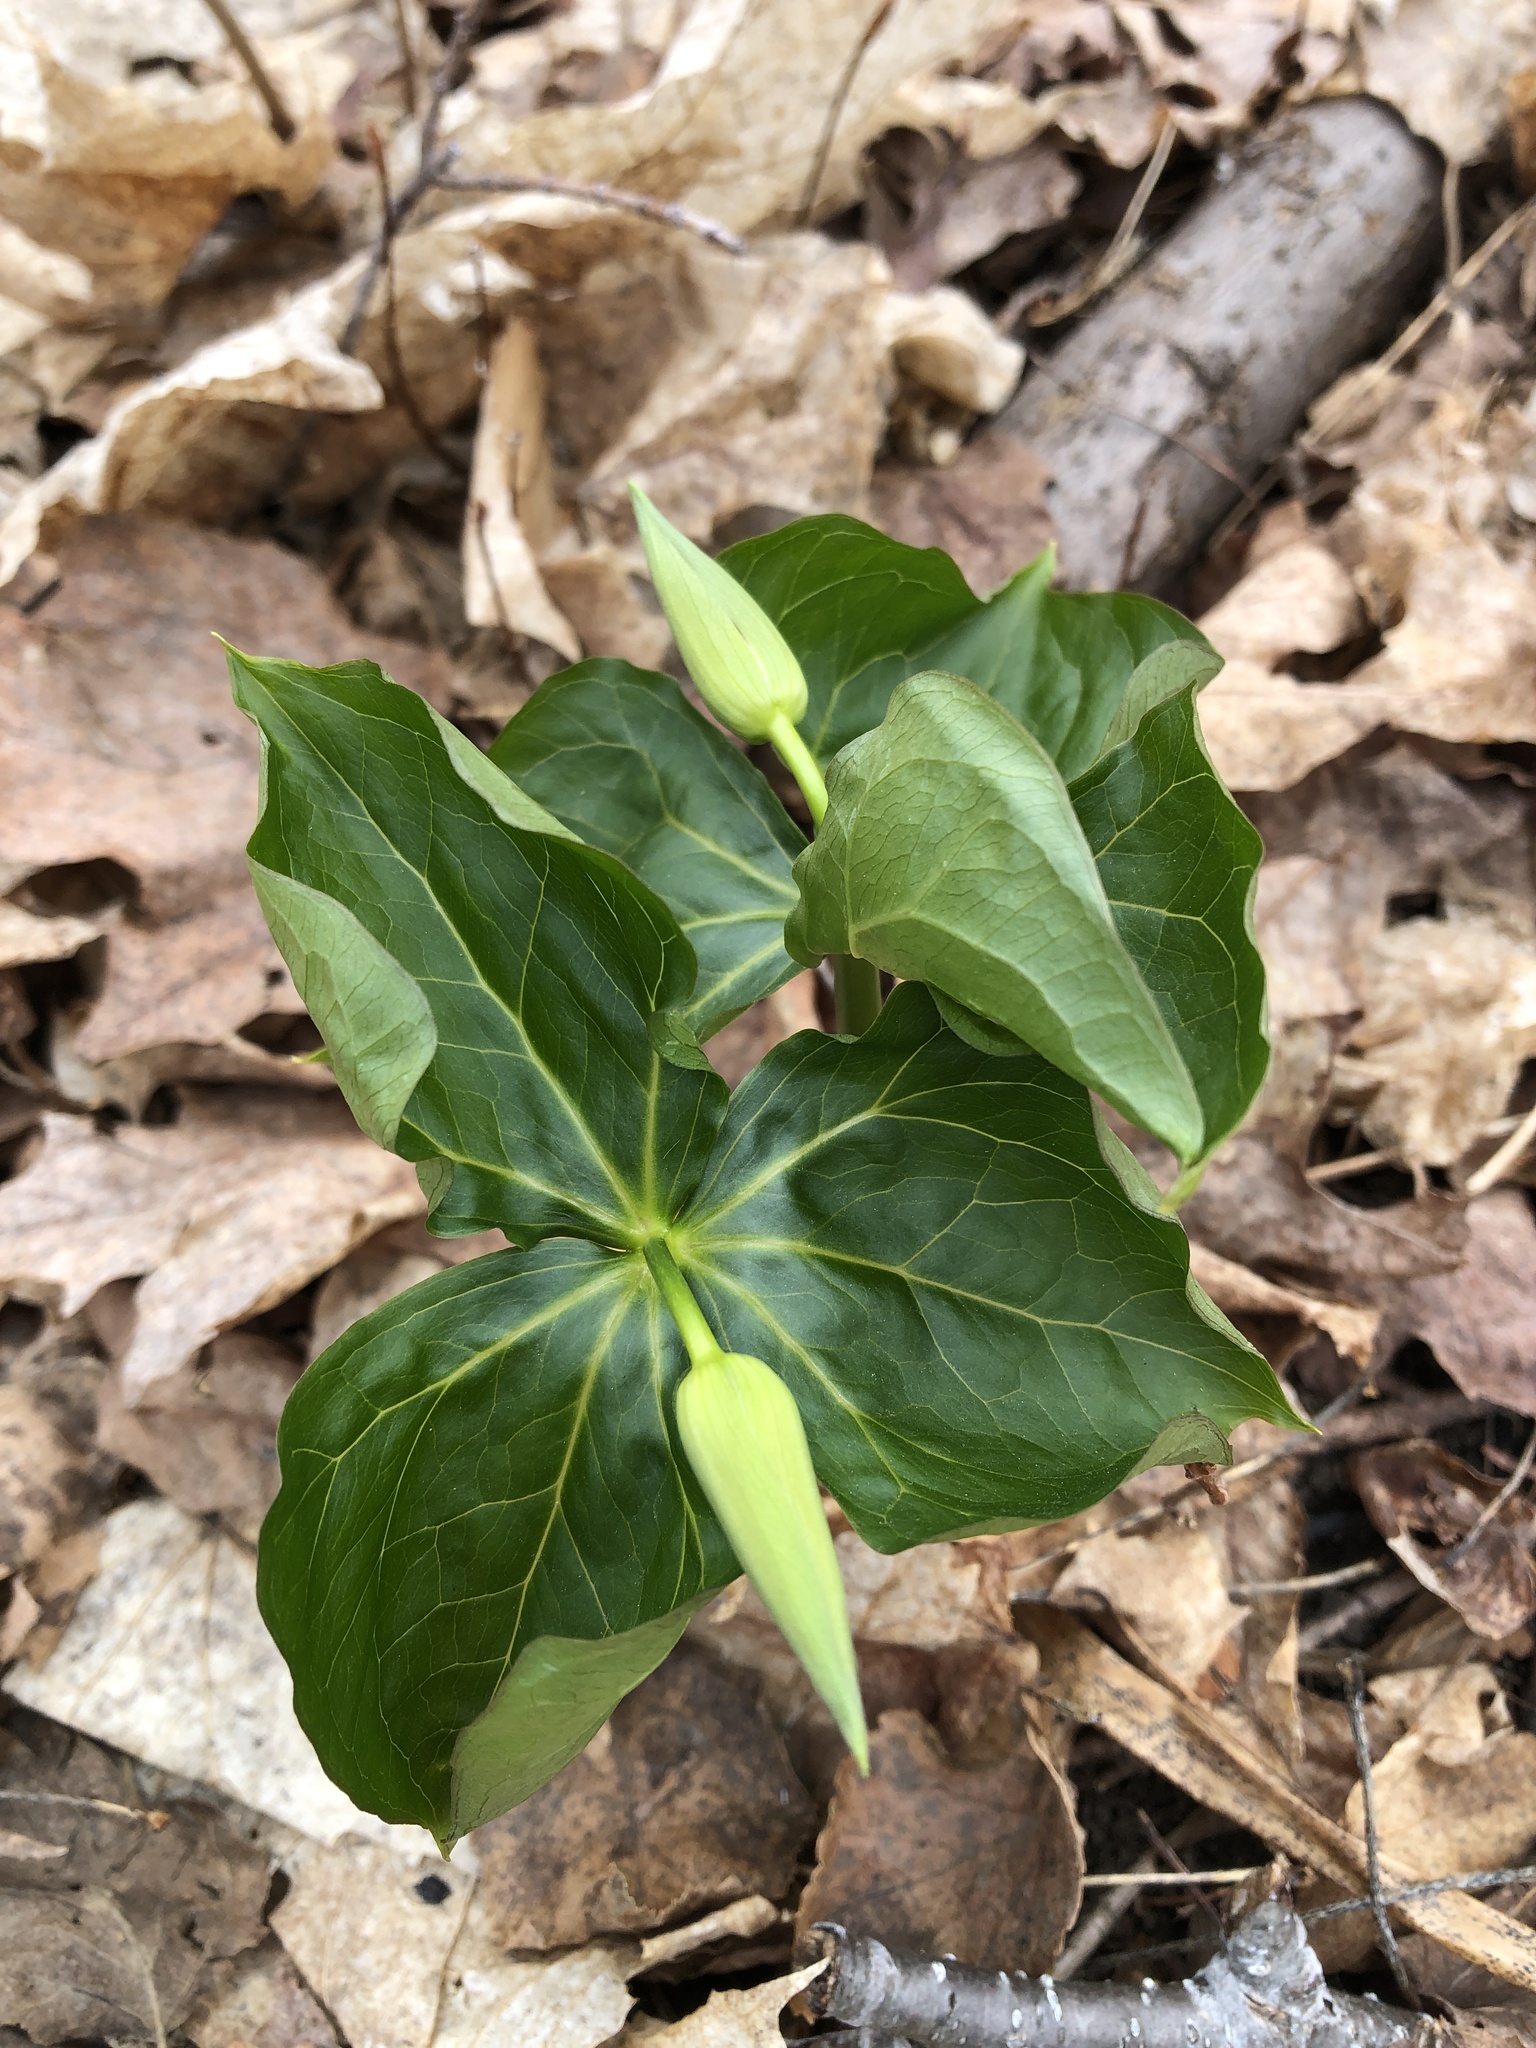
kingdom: Plantae
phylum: Tracheophyta
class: Liliopsida
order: Liliales
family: Melanthiaceae
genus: Trillium
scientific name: Trillium erectum
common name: Purple trillium
